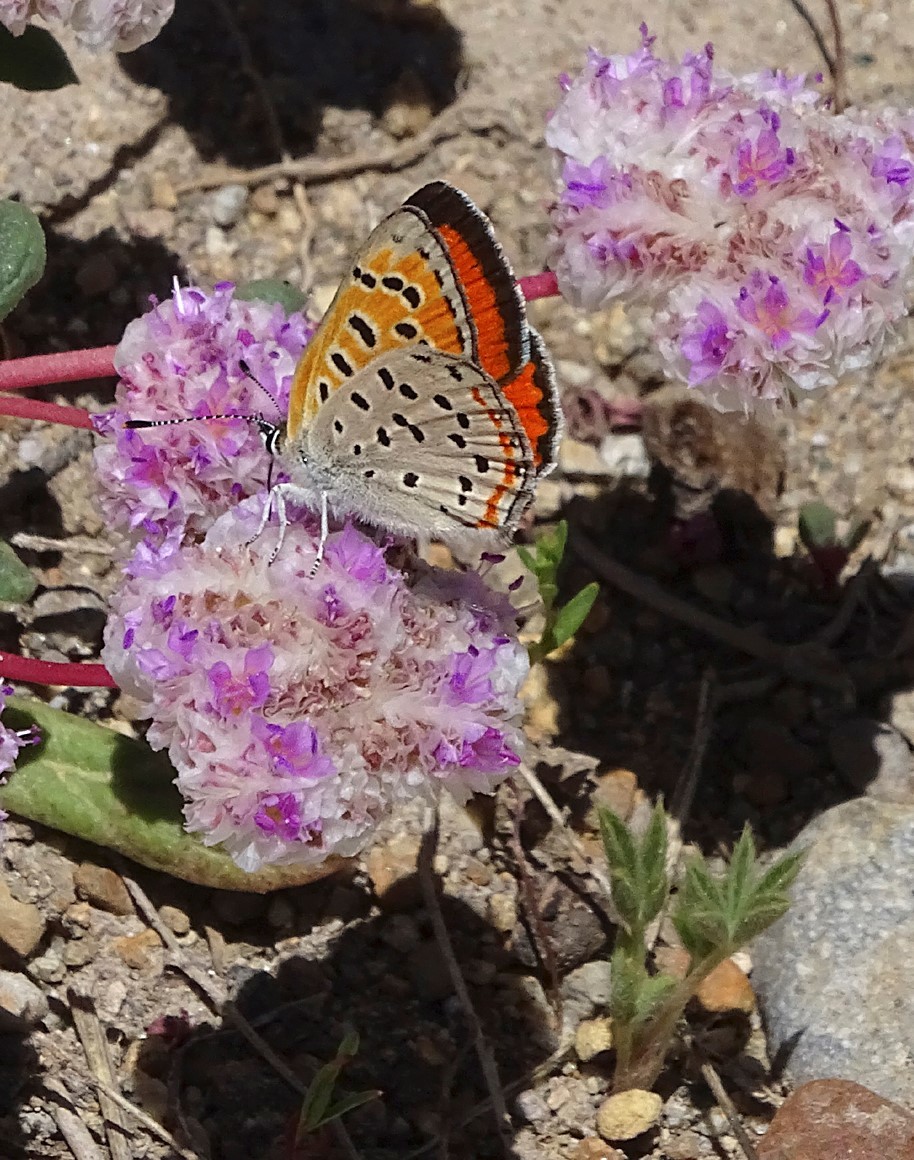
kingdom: Animalia
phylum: Arthropoda
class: Insecta
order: Lepidoptera
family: Lycaenidae
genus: Lycaena
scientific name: Lycaena cupreus
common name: Lustrous copper
